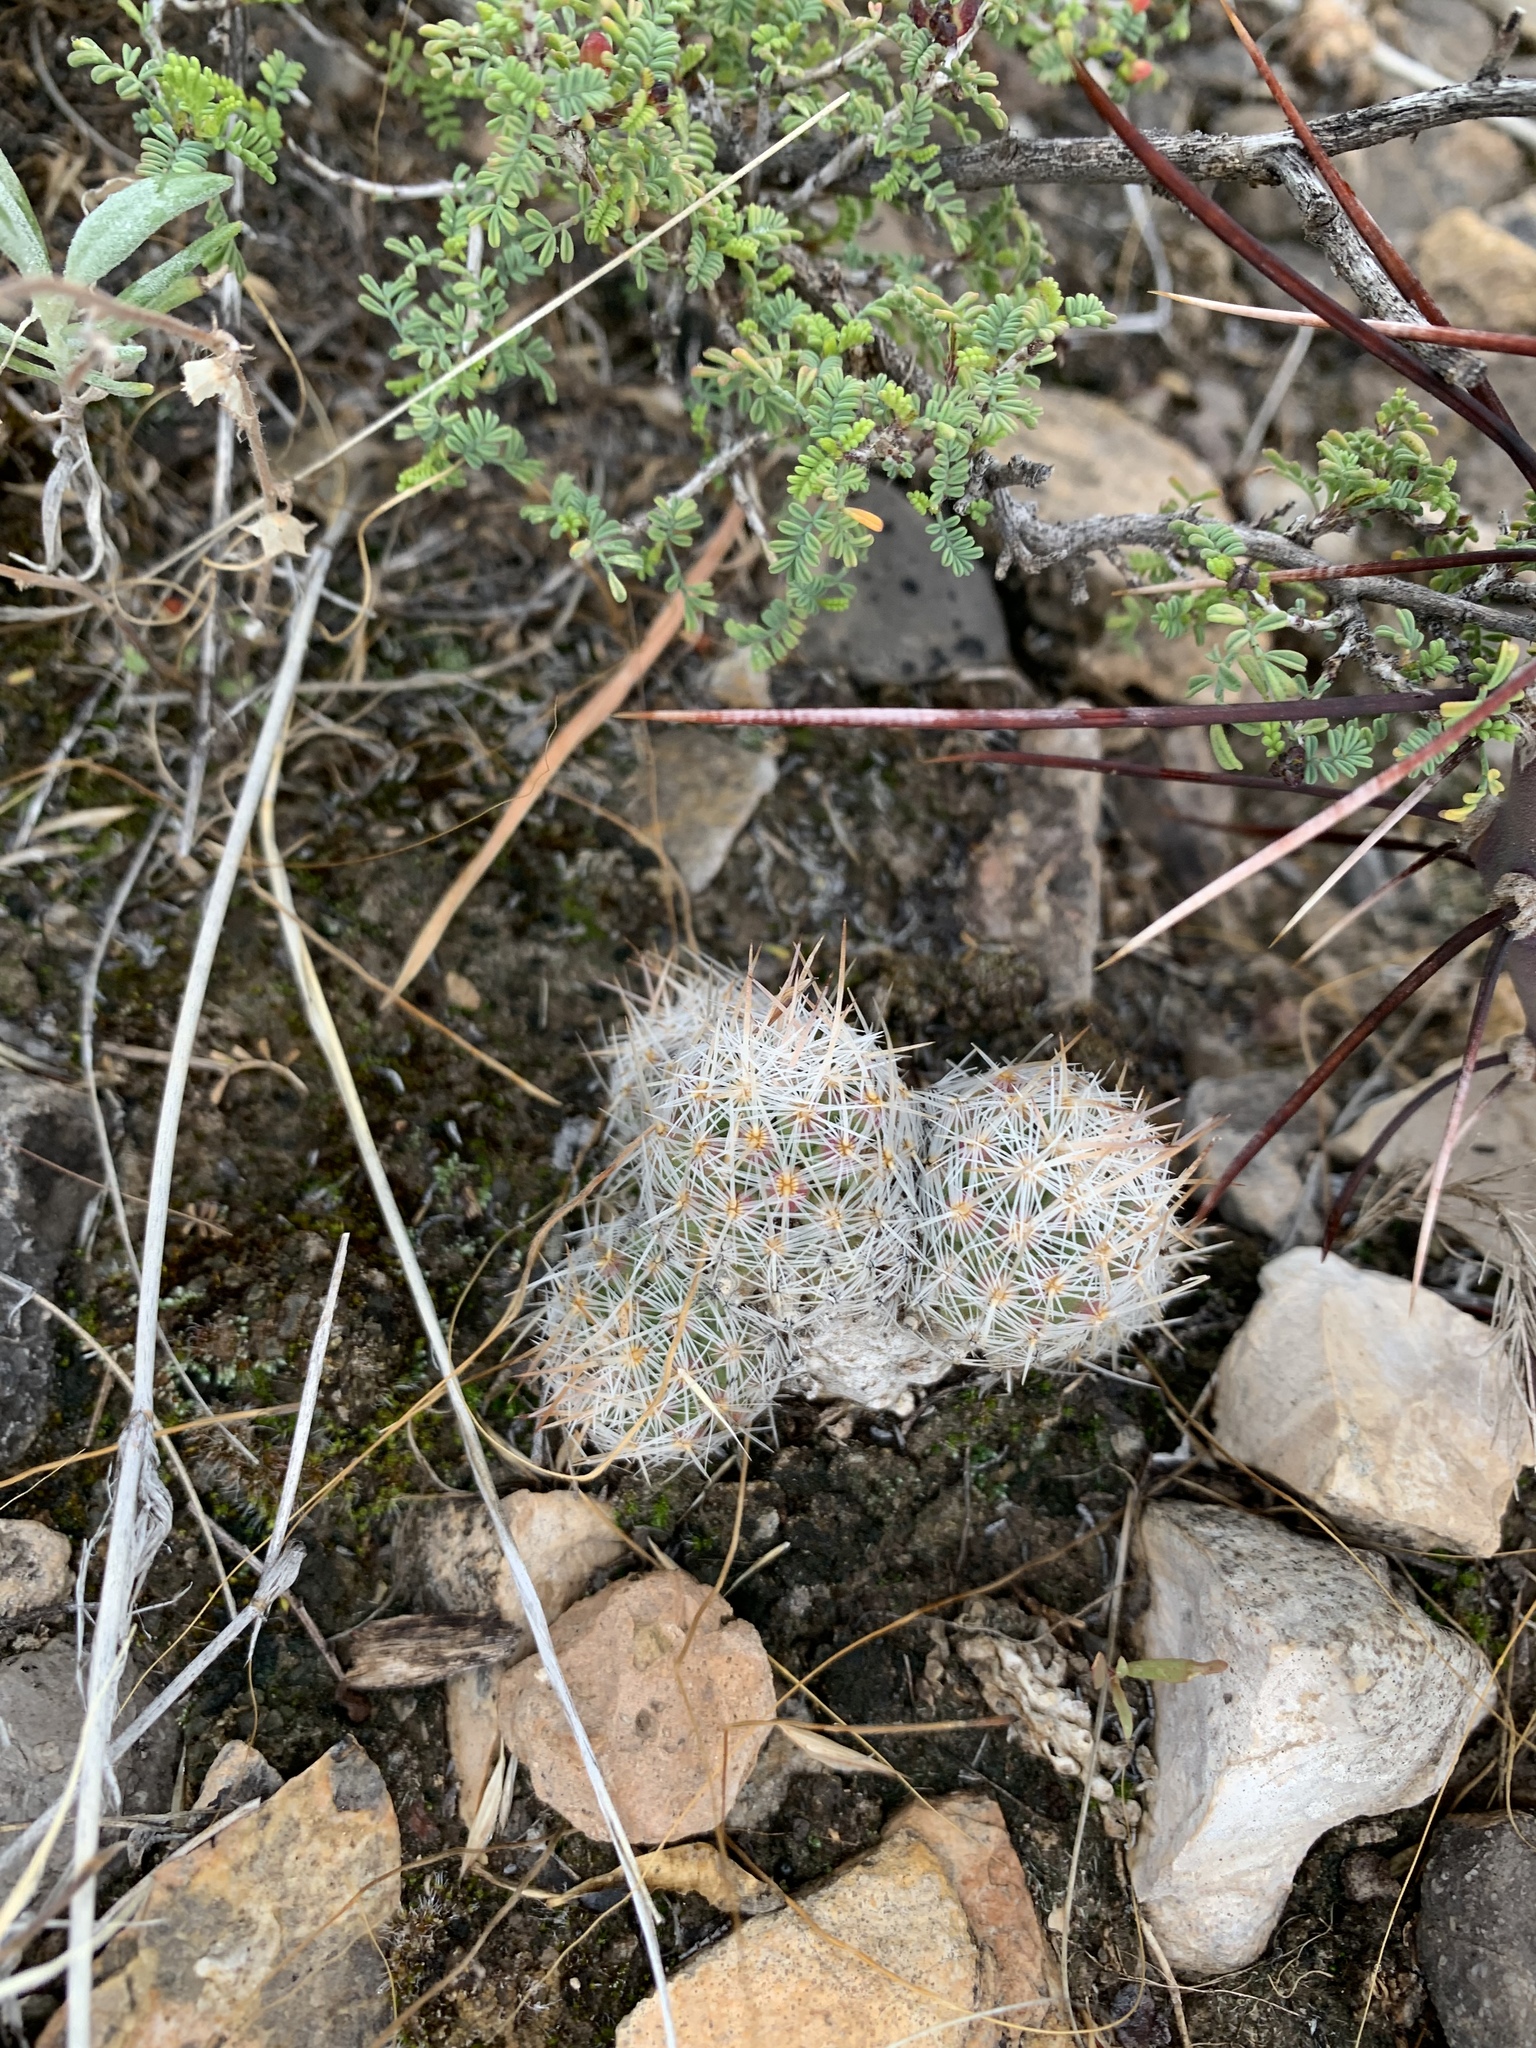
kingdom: Plantae
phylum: Tracheophyta
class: Magnoliopsida
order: Caryophyllales
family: Cactaceae
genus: Pelecyphora
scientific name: Pelecyphora tuberculosa
